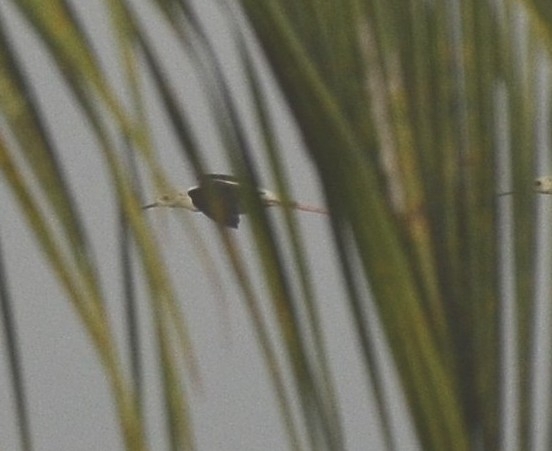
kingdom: Animalia
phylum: Chordata
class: Aves
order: Charadriiformes
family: Recurvirostridae
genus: Himantopus
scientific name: Himantopus himantopus
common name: Black-winged stilt
